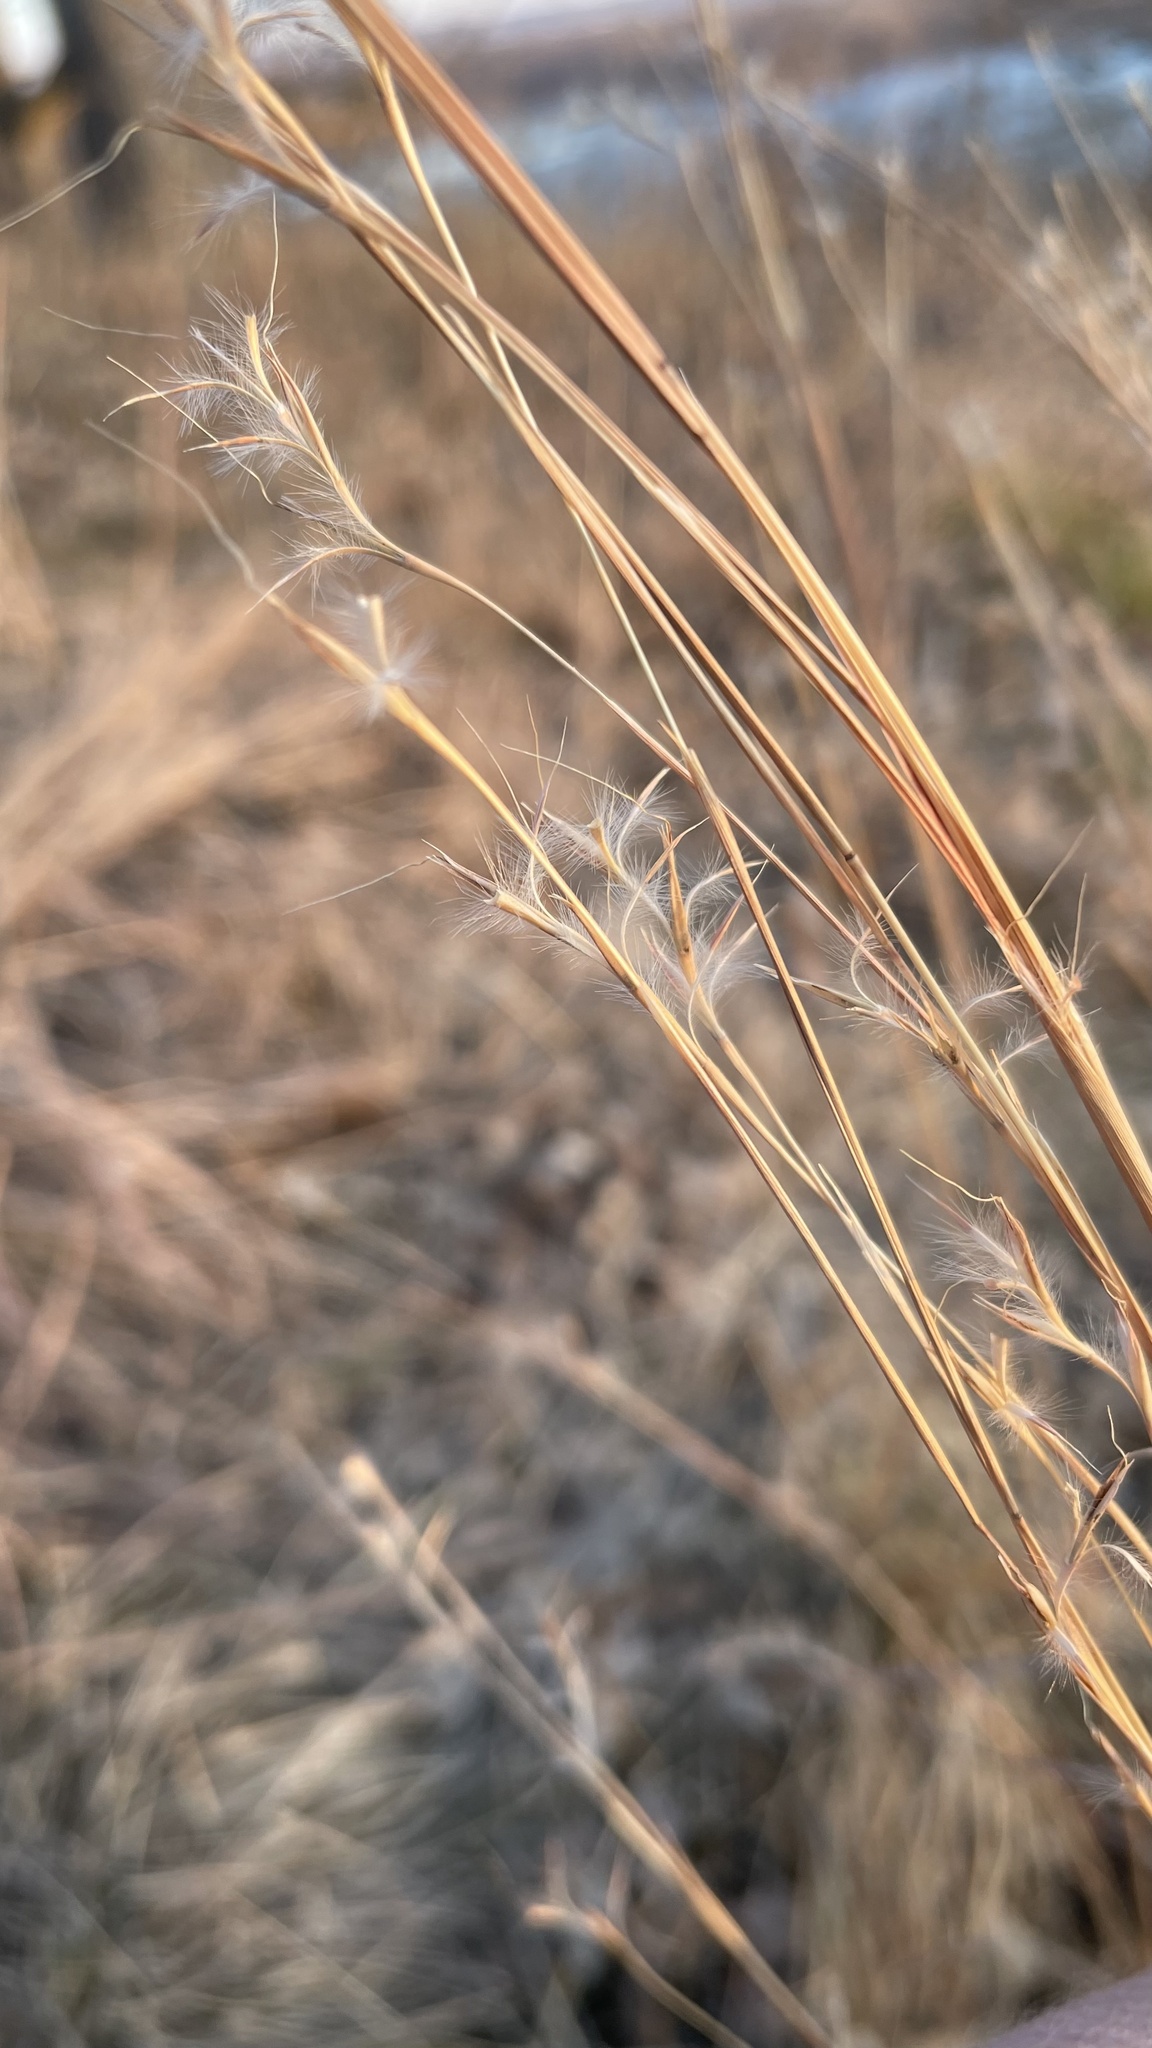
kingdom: Plantae
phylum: Tracheophyta
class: Liliopsida
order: Poales
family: Poaceae
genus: Schizachyrium
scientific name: Schizachyrium scoparium
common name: Little bluestem
